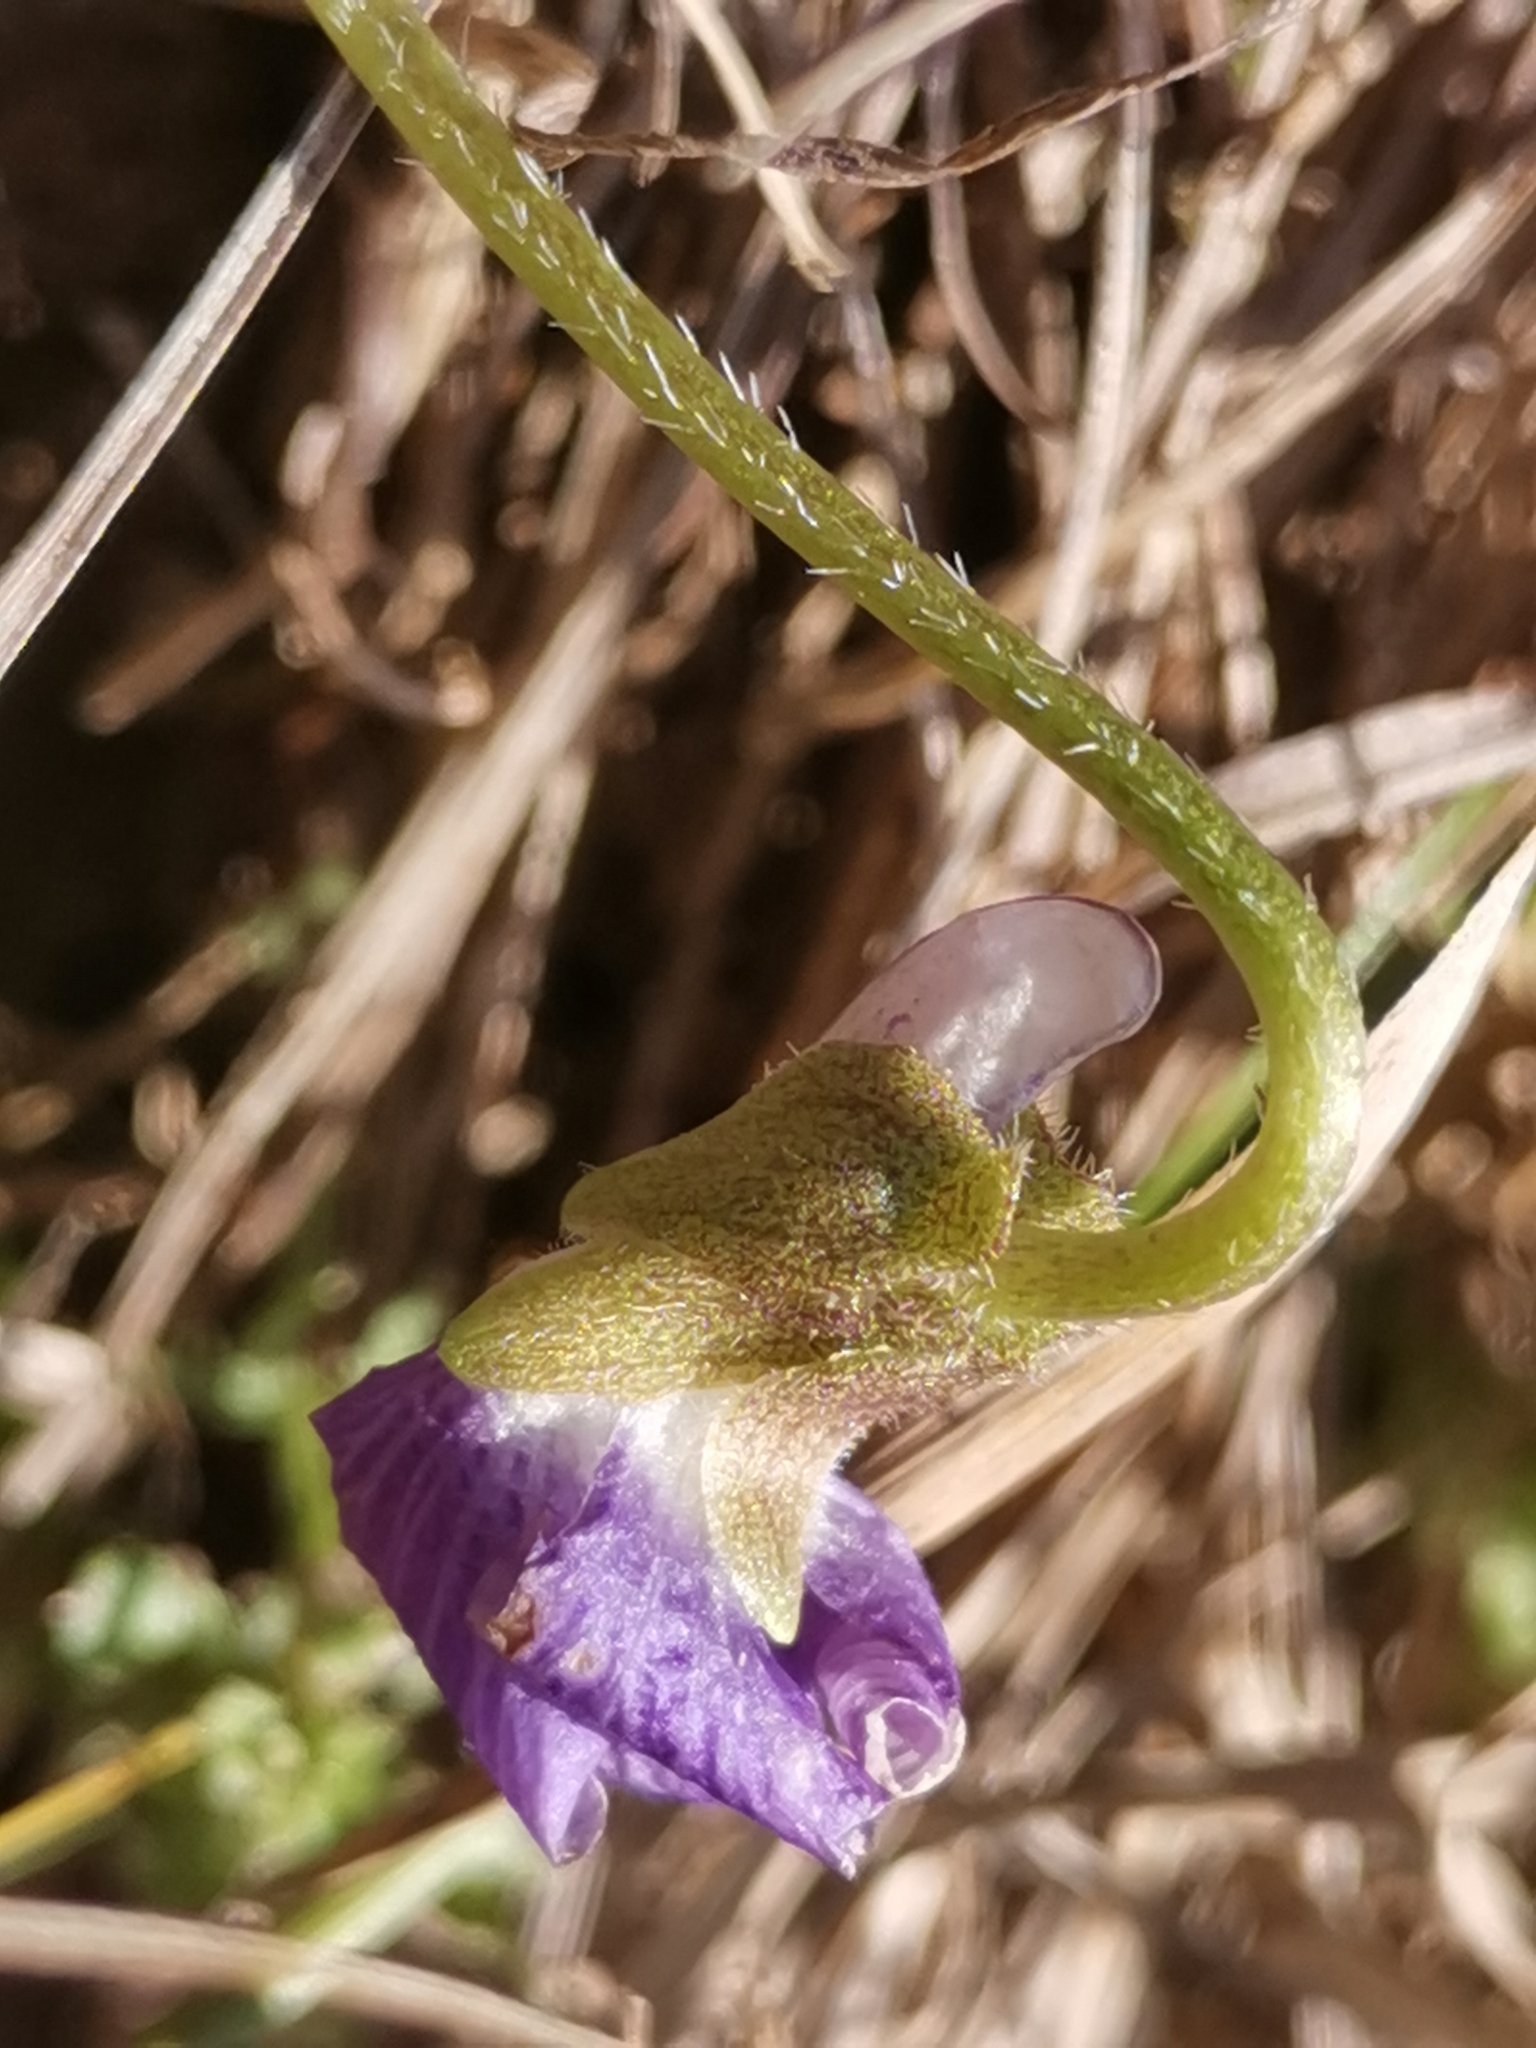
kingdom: Plantae
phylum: Tracheophyta
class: Magnoliopsida
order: Malpighiales
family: Violaceae
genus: Viola
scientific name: Viola collina
